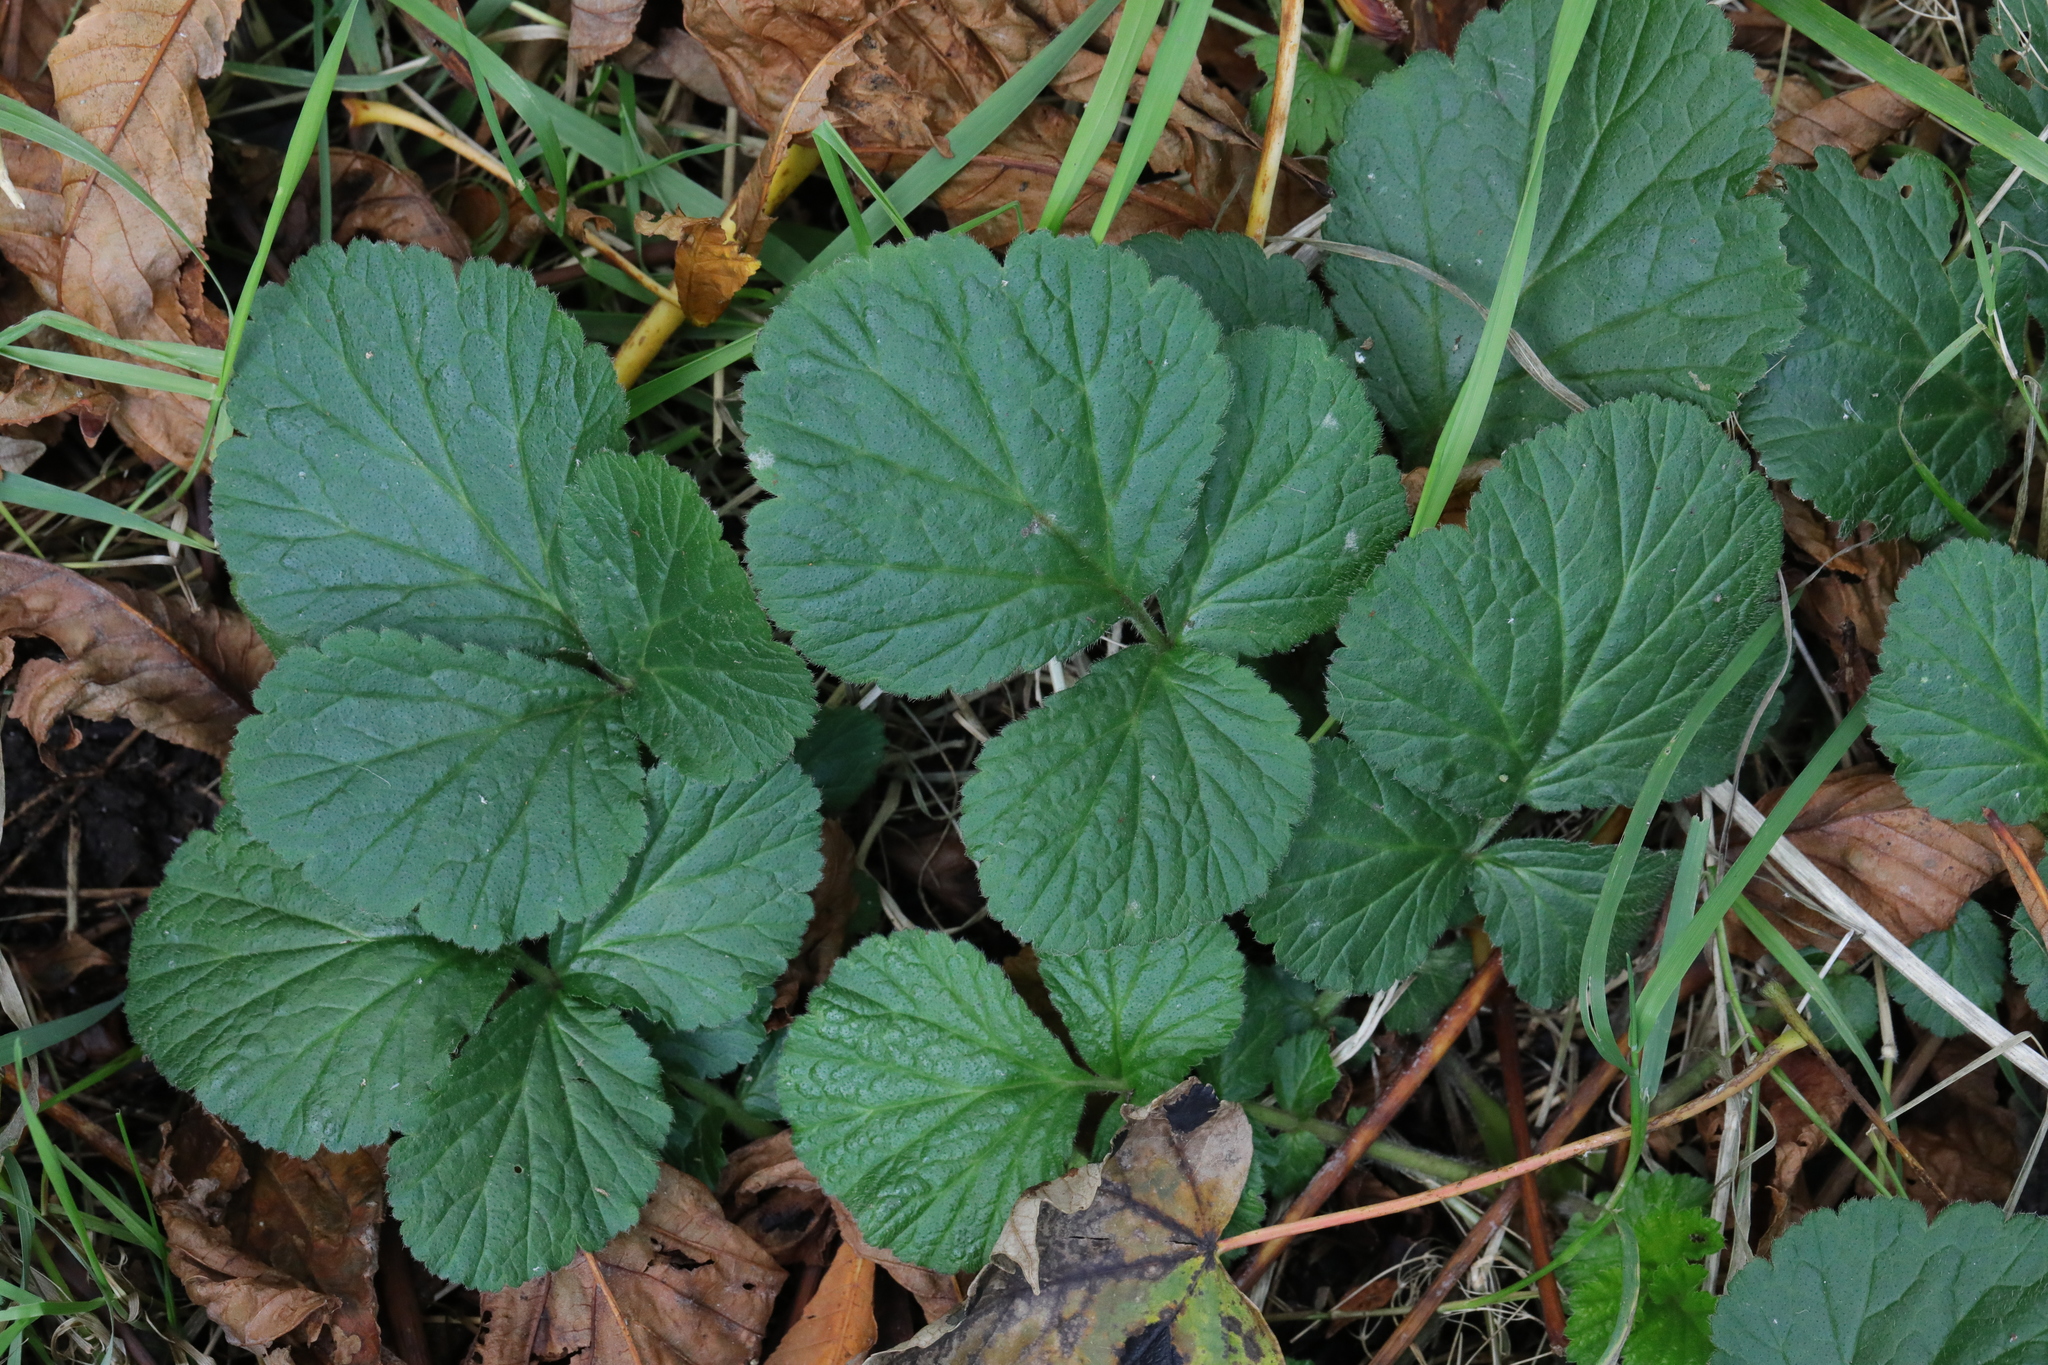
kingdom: Plantae
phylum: Tracheophyta
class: Magnoliopsida
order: Rosales
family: Rosaceae
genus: Geum
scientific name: Geum urbanum
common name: Wood avens
